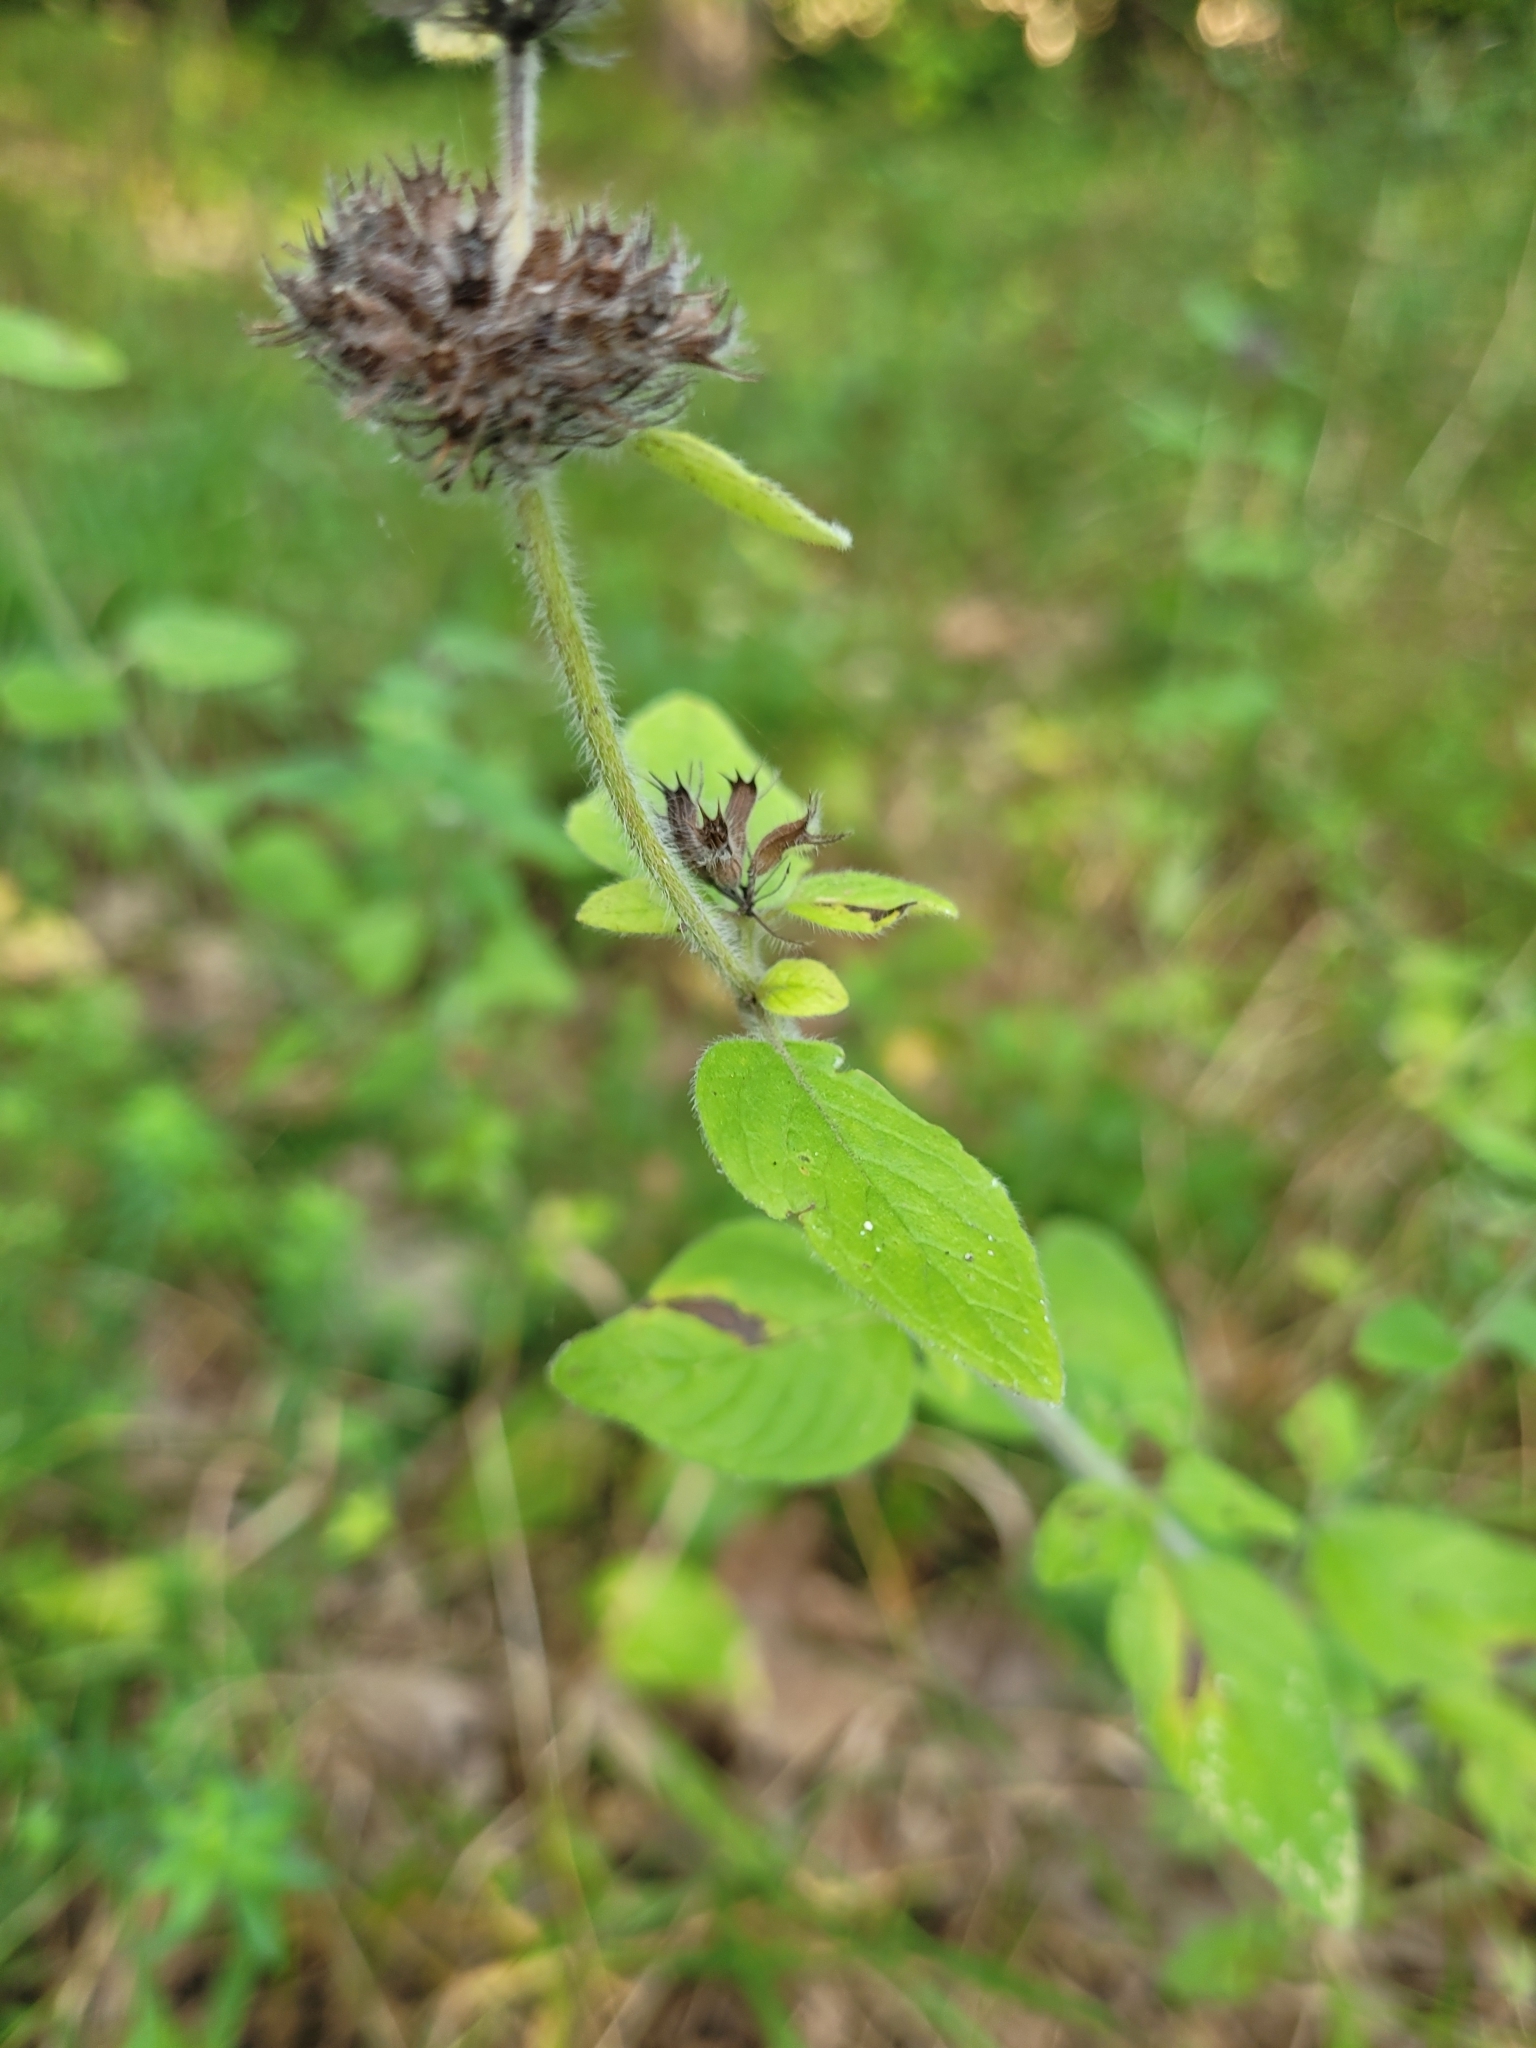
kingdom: Plantae
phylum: Tracheophyta
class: Magnoliopsida
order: Lamiales
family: Lamiaceae
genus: Clinopodium
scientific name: Clinopodium vulgare
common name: Wild basil
